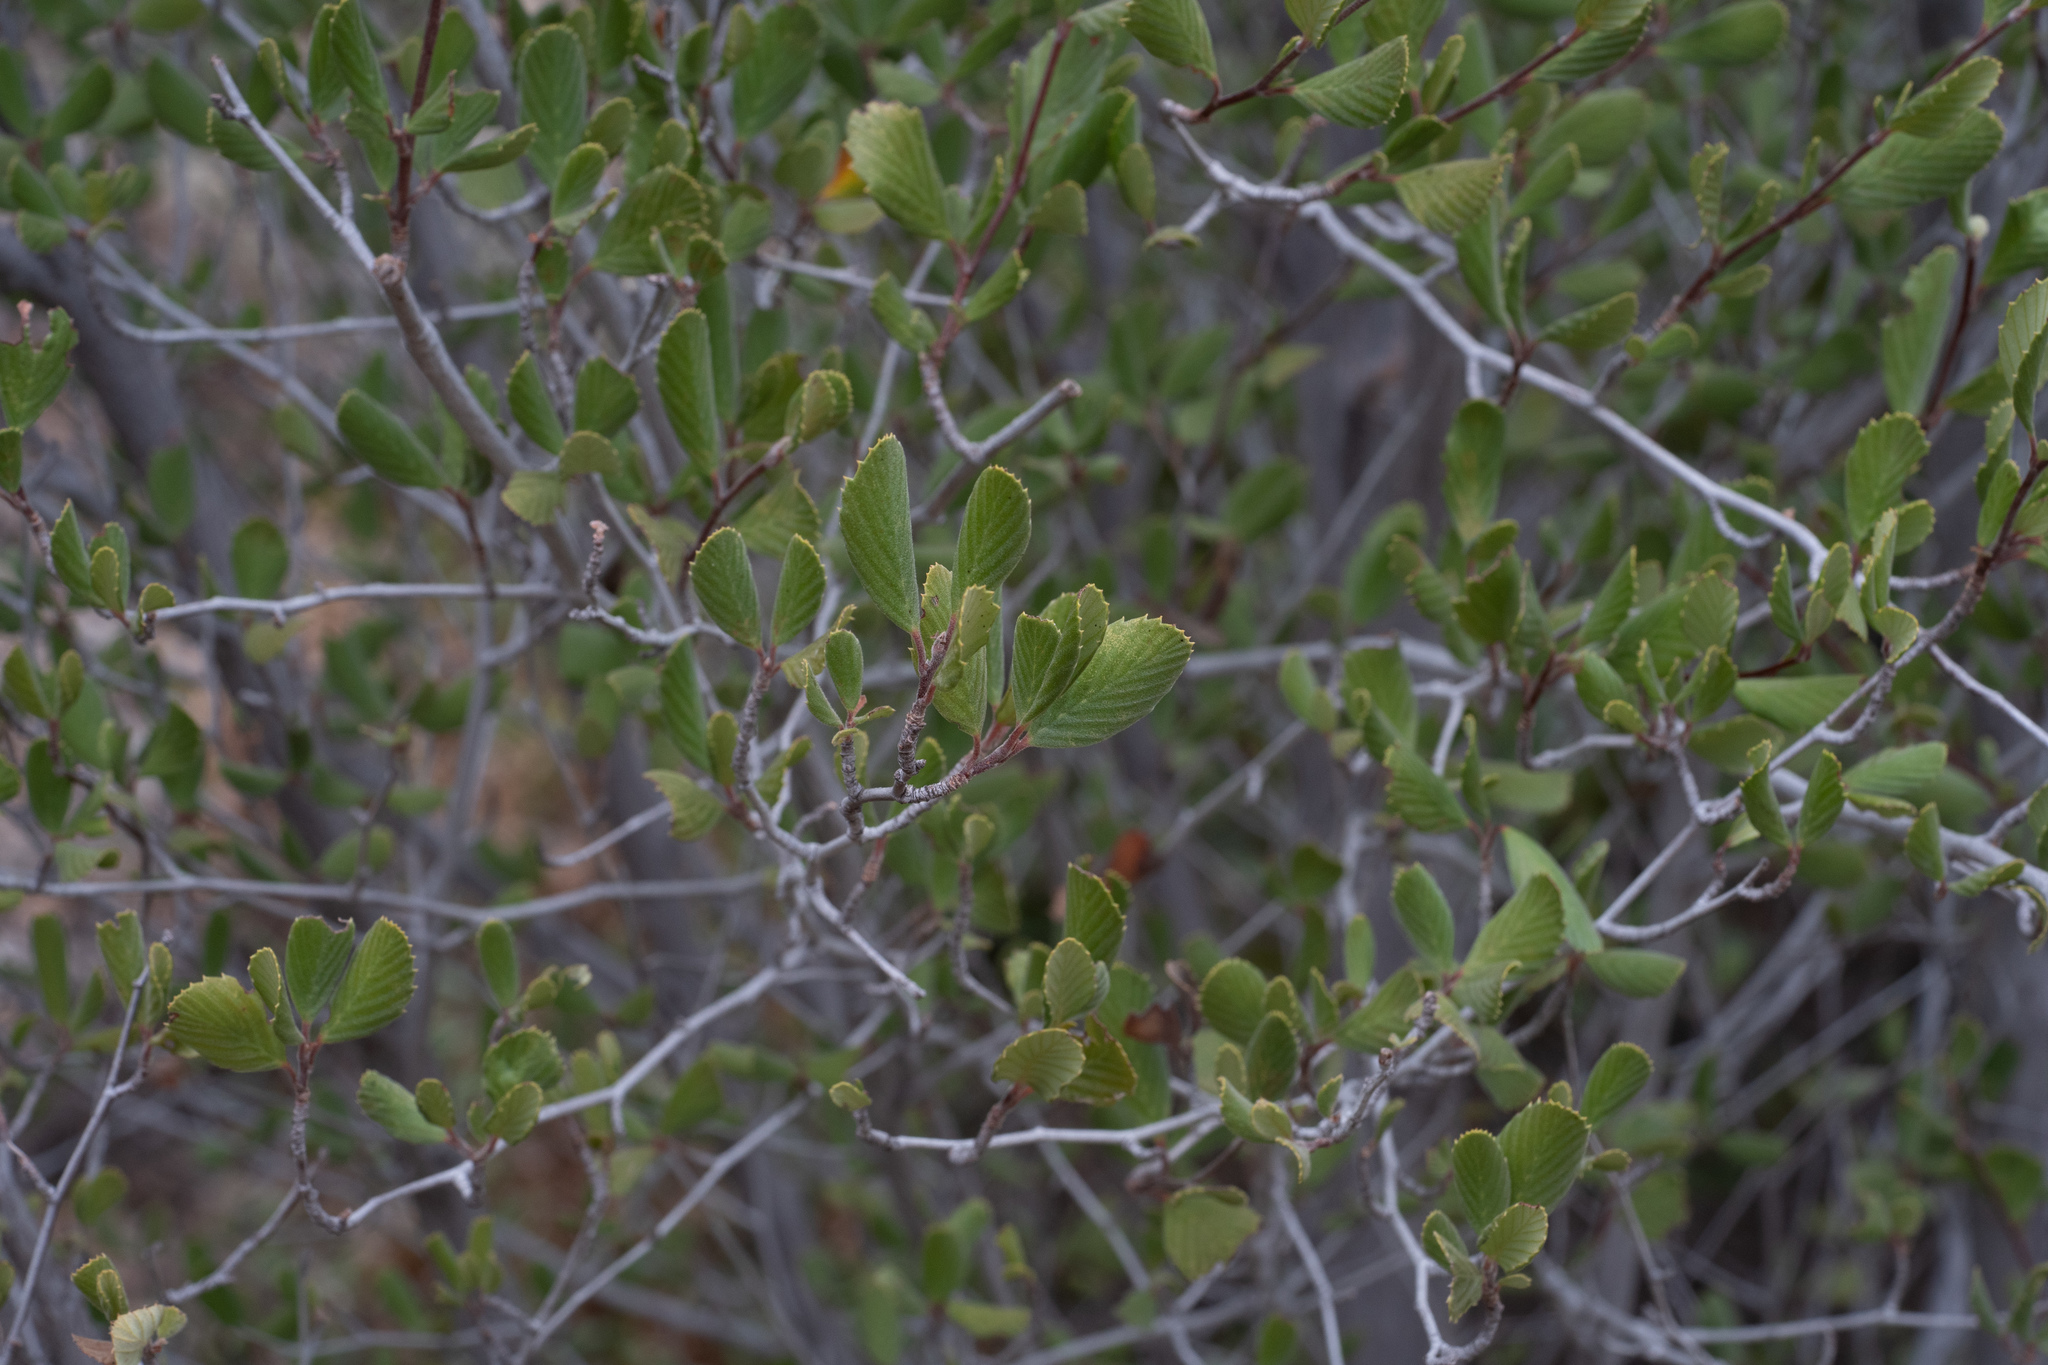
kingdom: Plantae
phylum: Tracheophyta
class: Magnoliopsida
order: Rosales
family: Rosaceae
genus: Cercocarpus
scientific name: Cercocarpus betuloides
